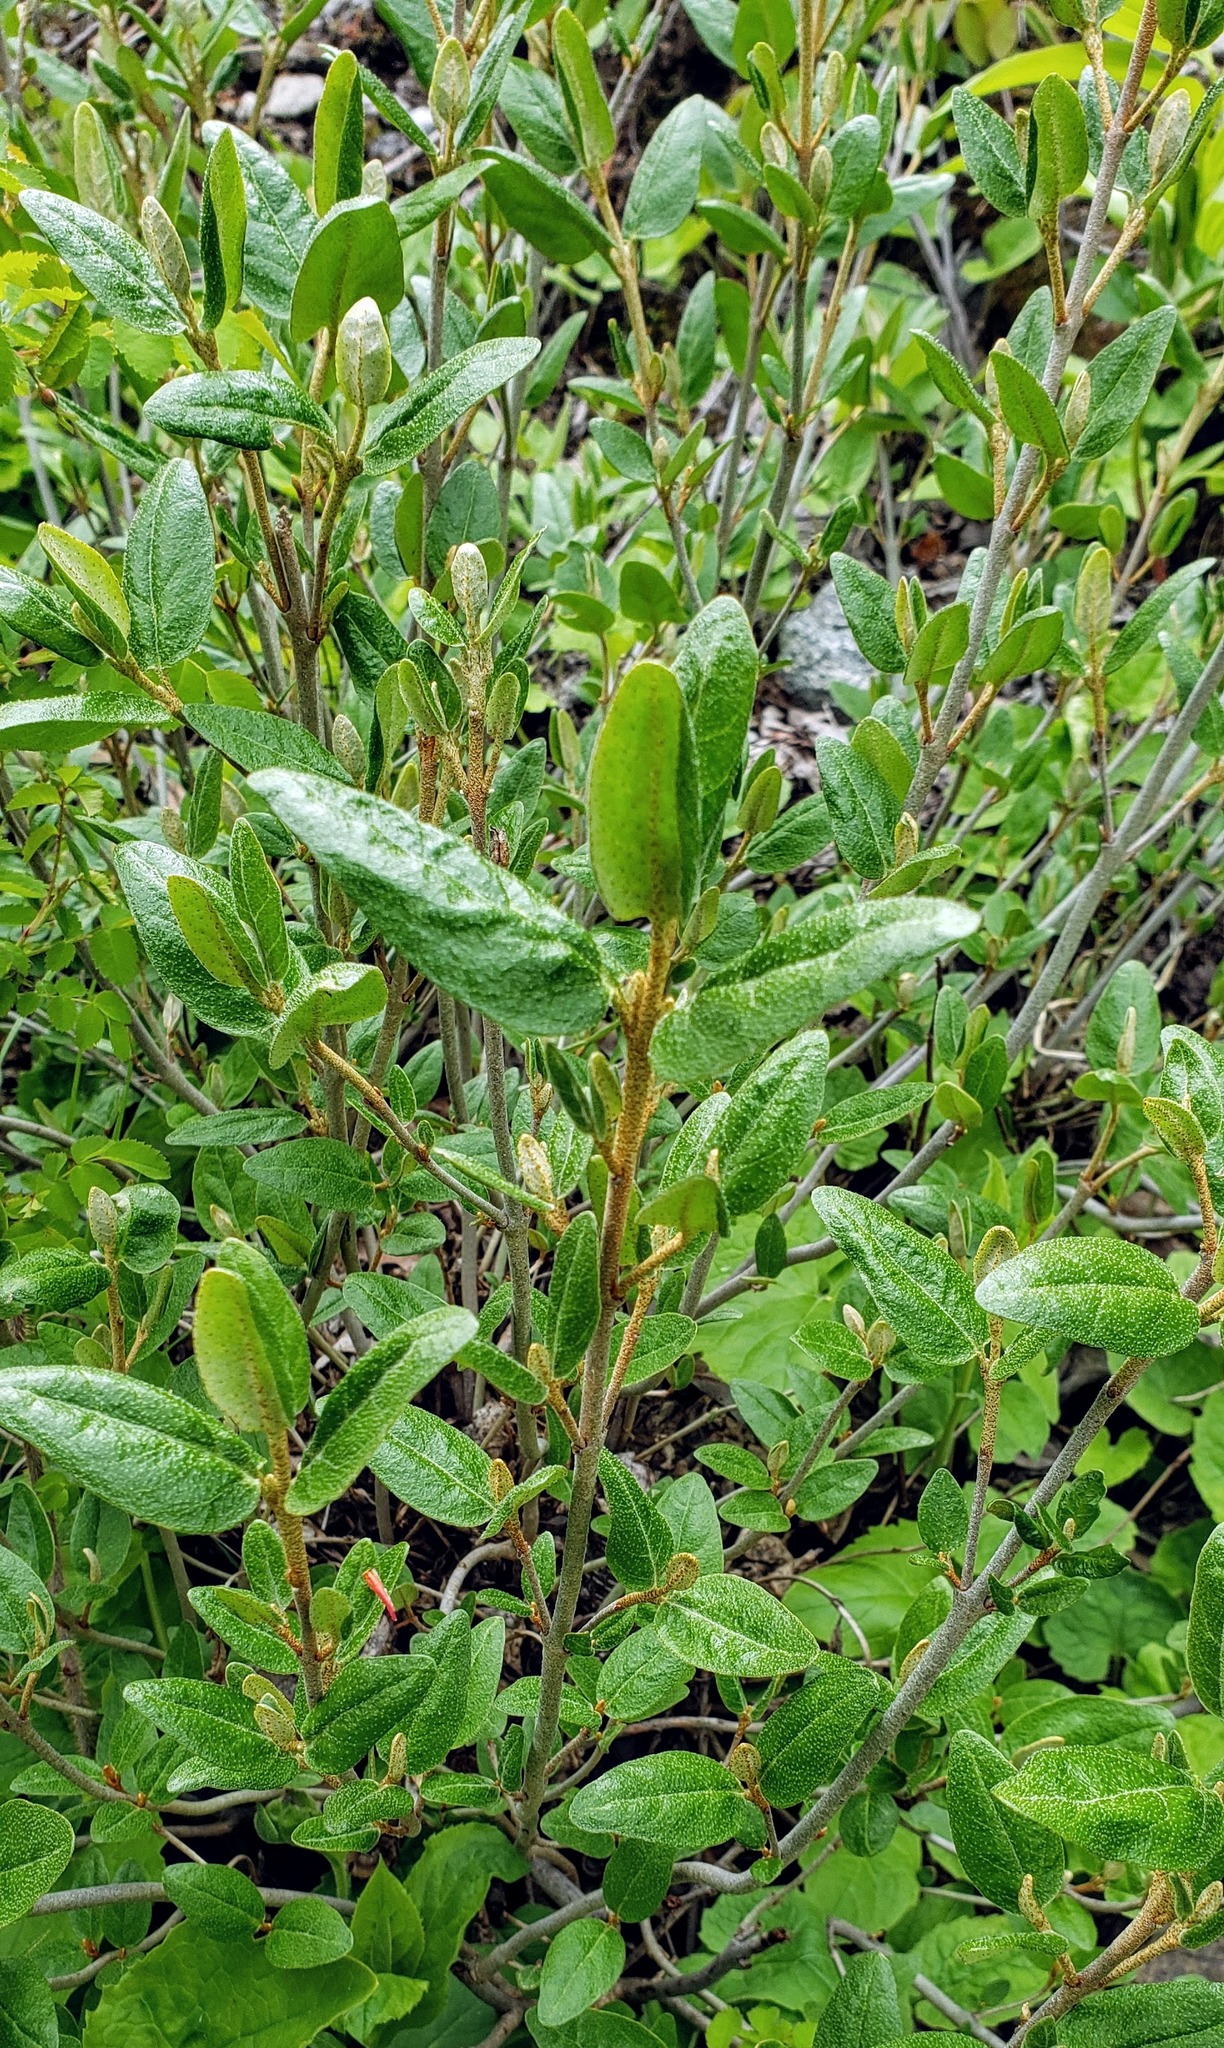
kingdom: Plantae
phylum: Tracheophyta
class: Magnoliopsida
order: Rosales
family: Elaeagnaceae
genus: Shepherdia
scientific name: Shepherdia canadensis
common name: Soapberry
